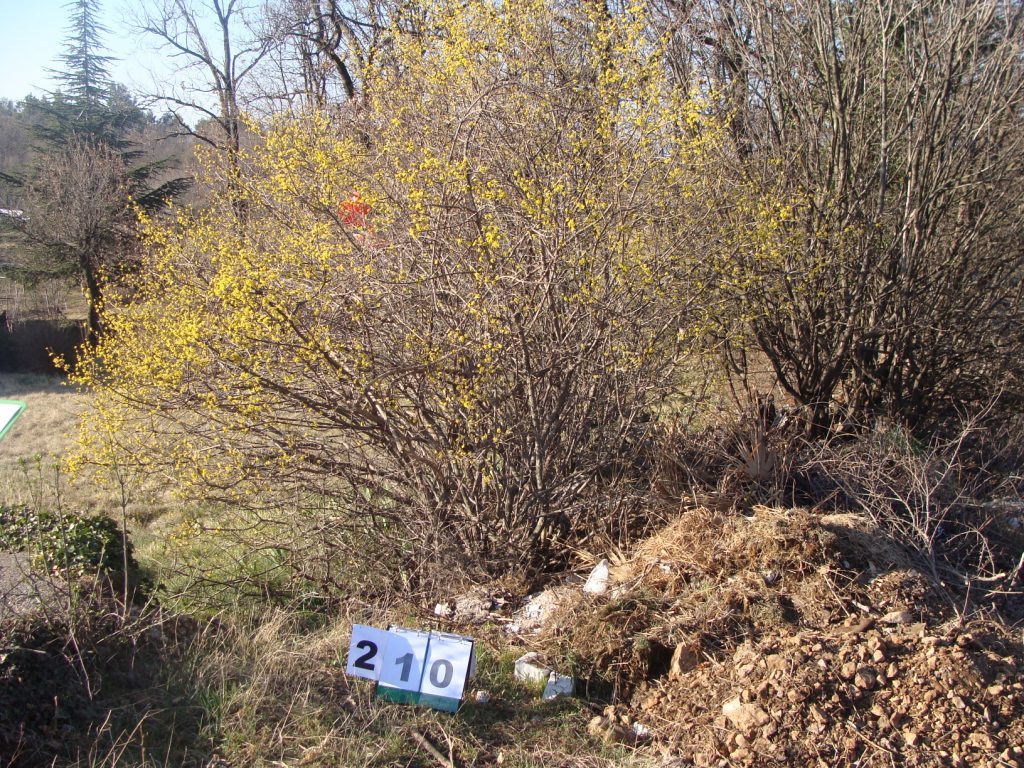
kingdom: Plantae
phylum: Tracheophyta
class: Magnoliopsida
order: Cornales
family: Cornaceae
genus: Cornus
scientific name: Cornus mas
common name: Cornelian-cherry
